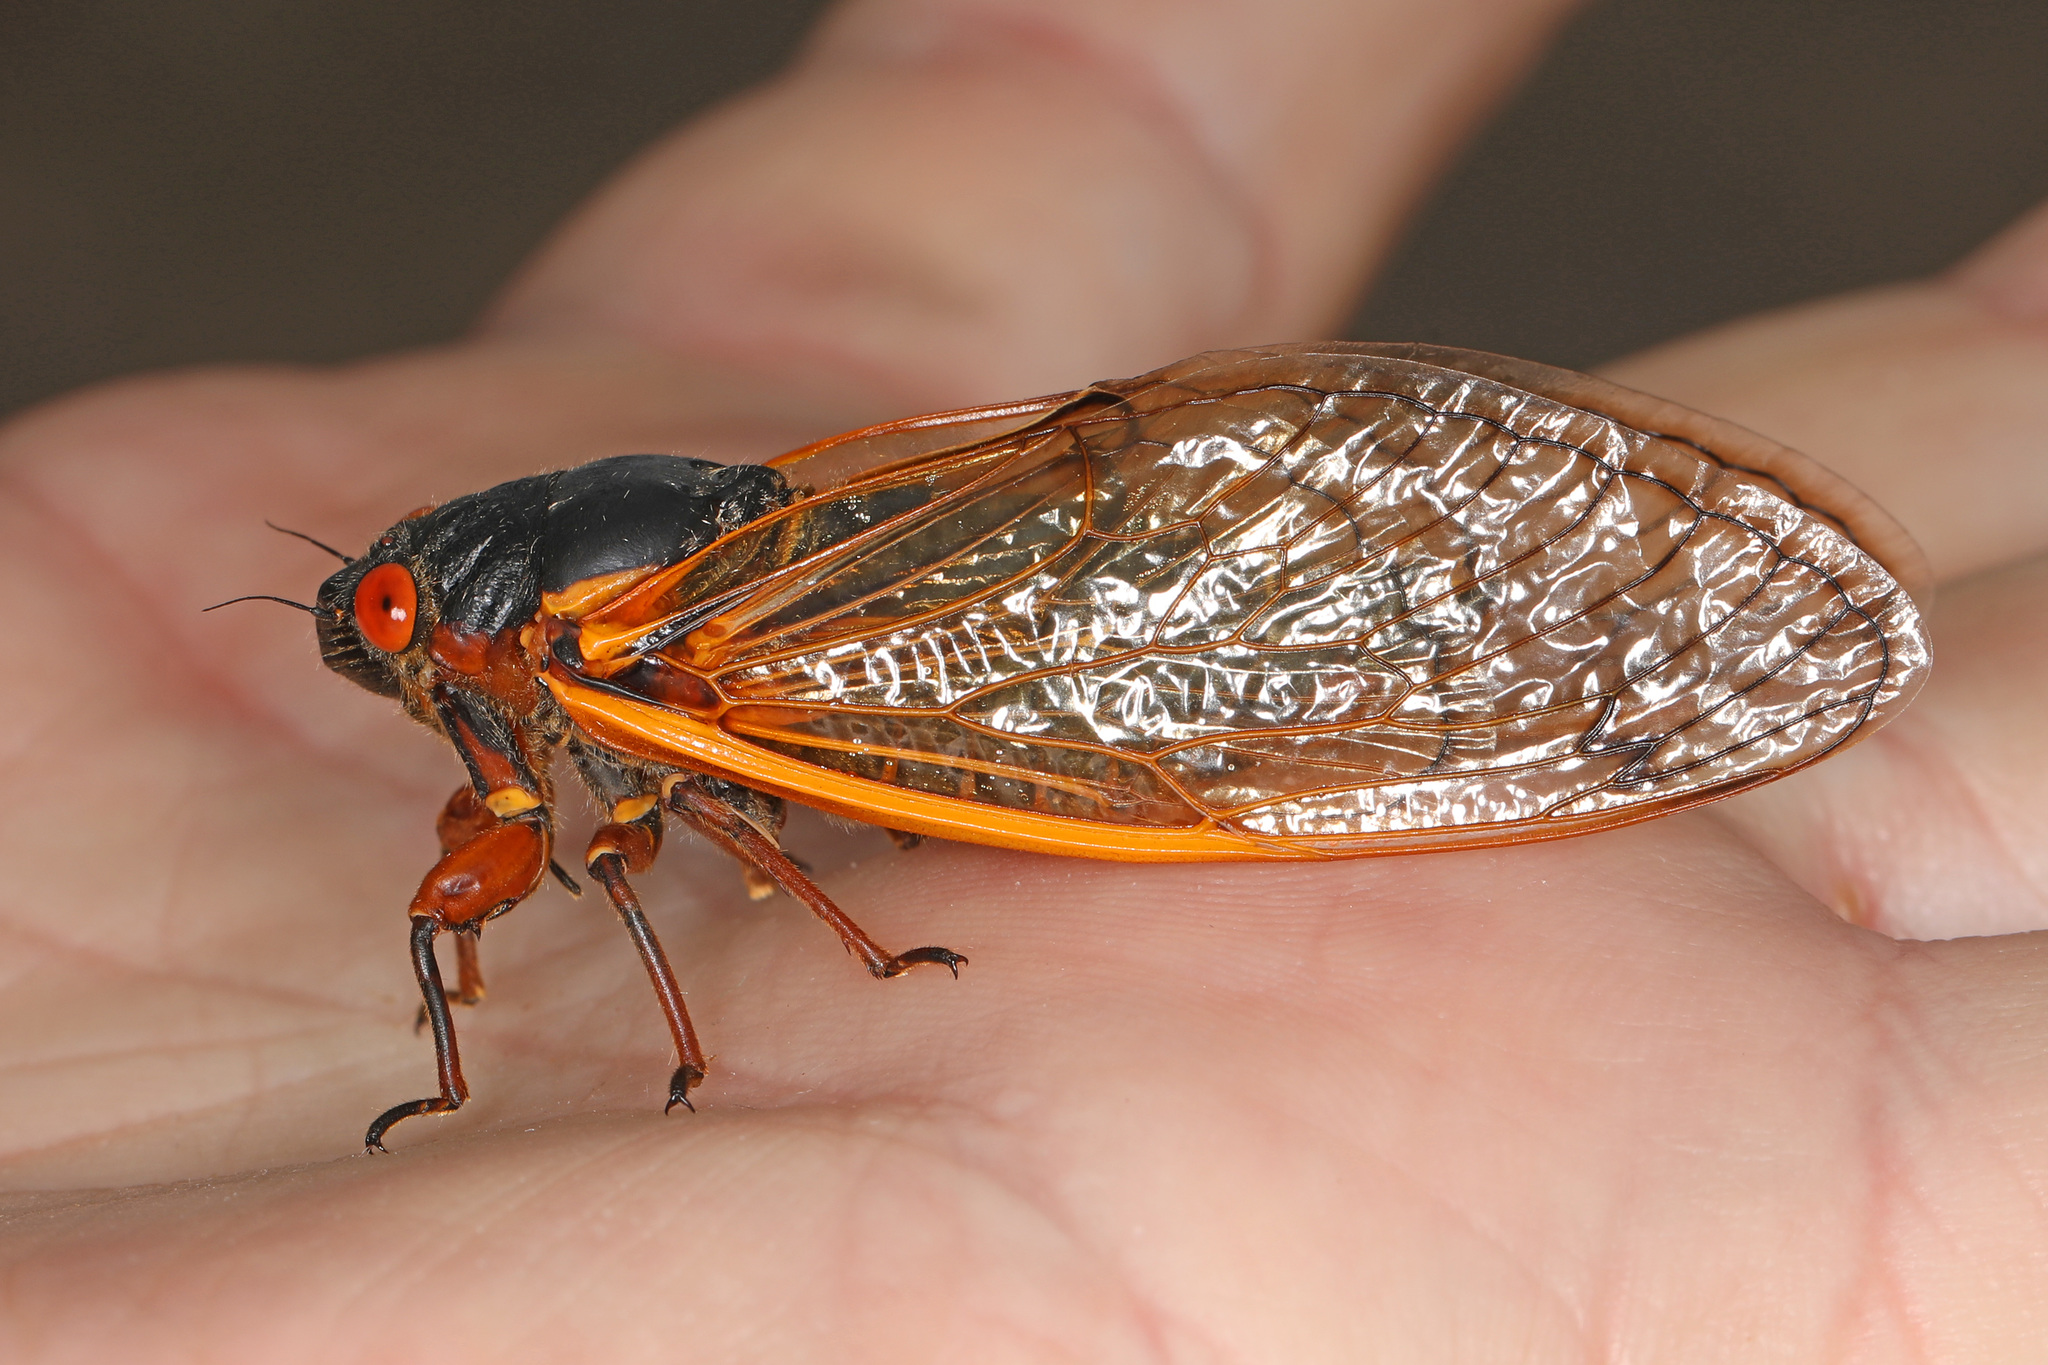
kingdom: Animalia
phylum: Arthropoda
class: Insecta
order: Hemiptera
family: Cicadidae
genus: Magicicada
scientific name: Magicicada septendecim
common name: Periodical cicada
